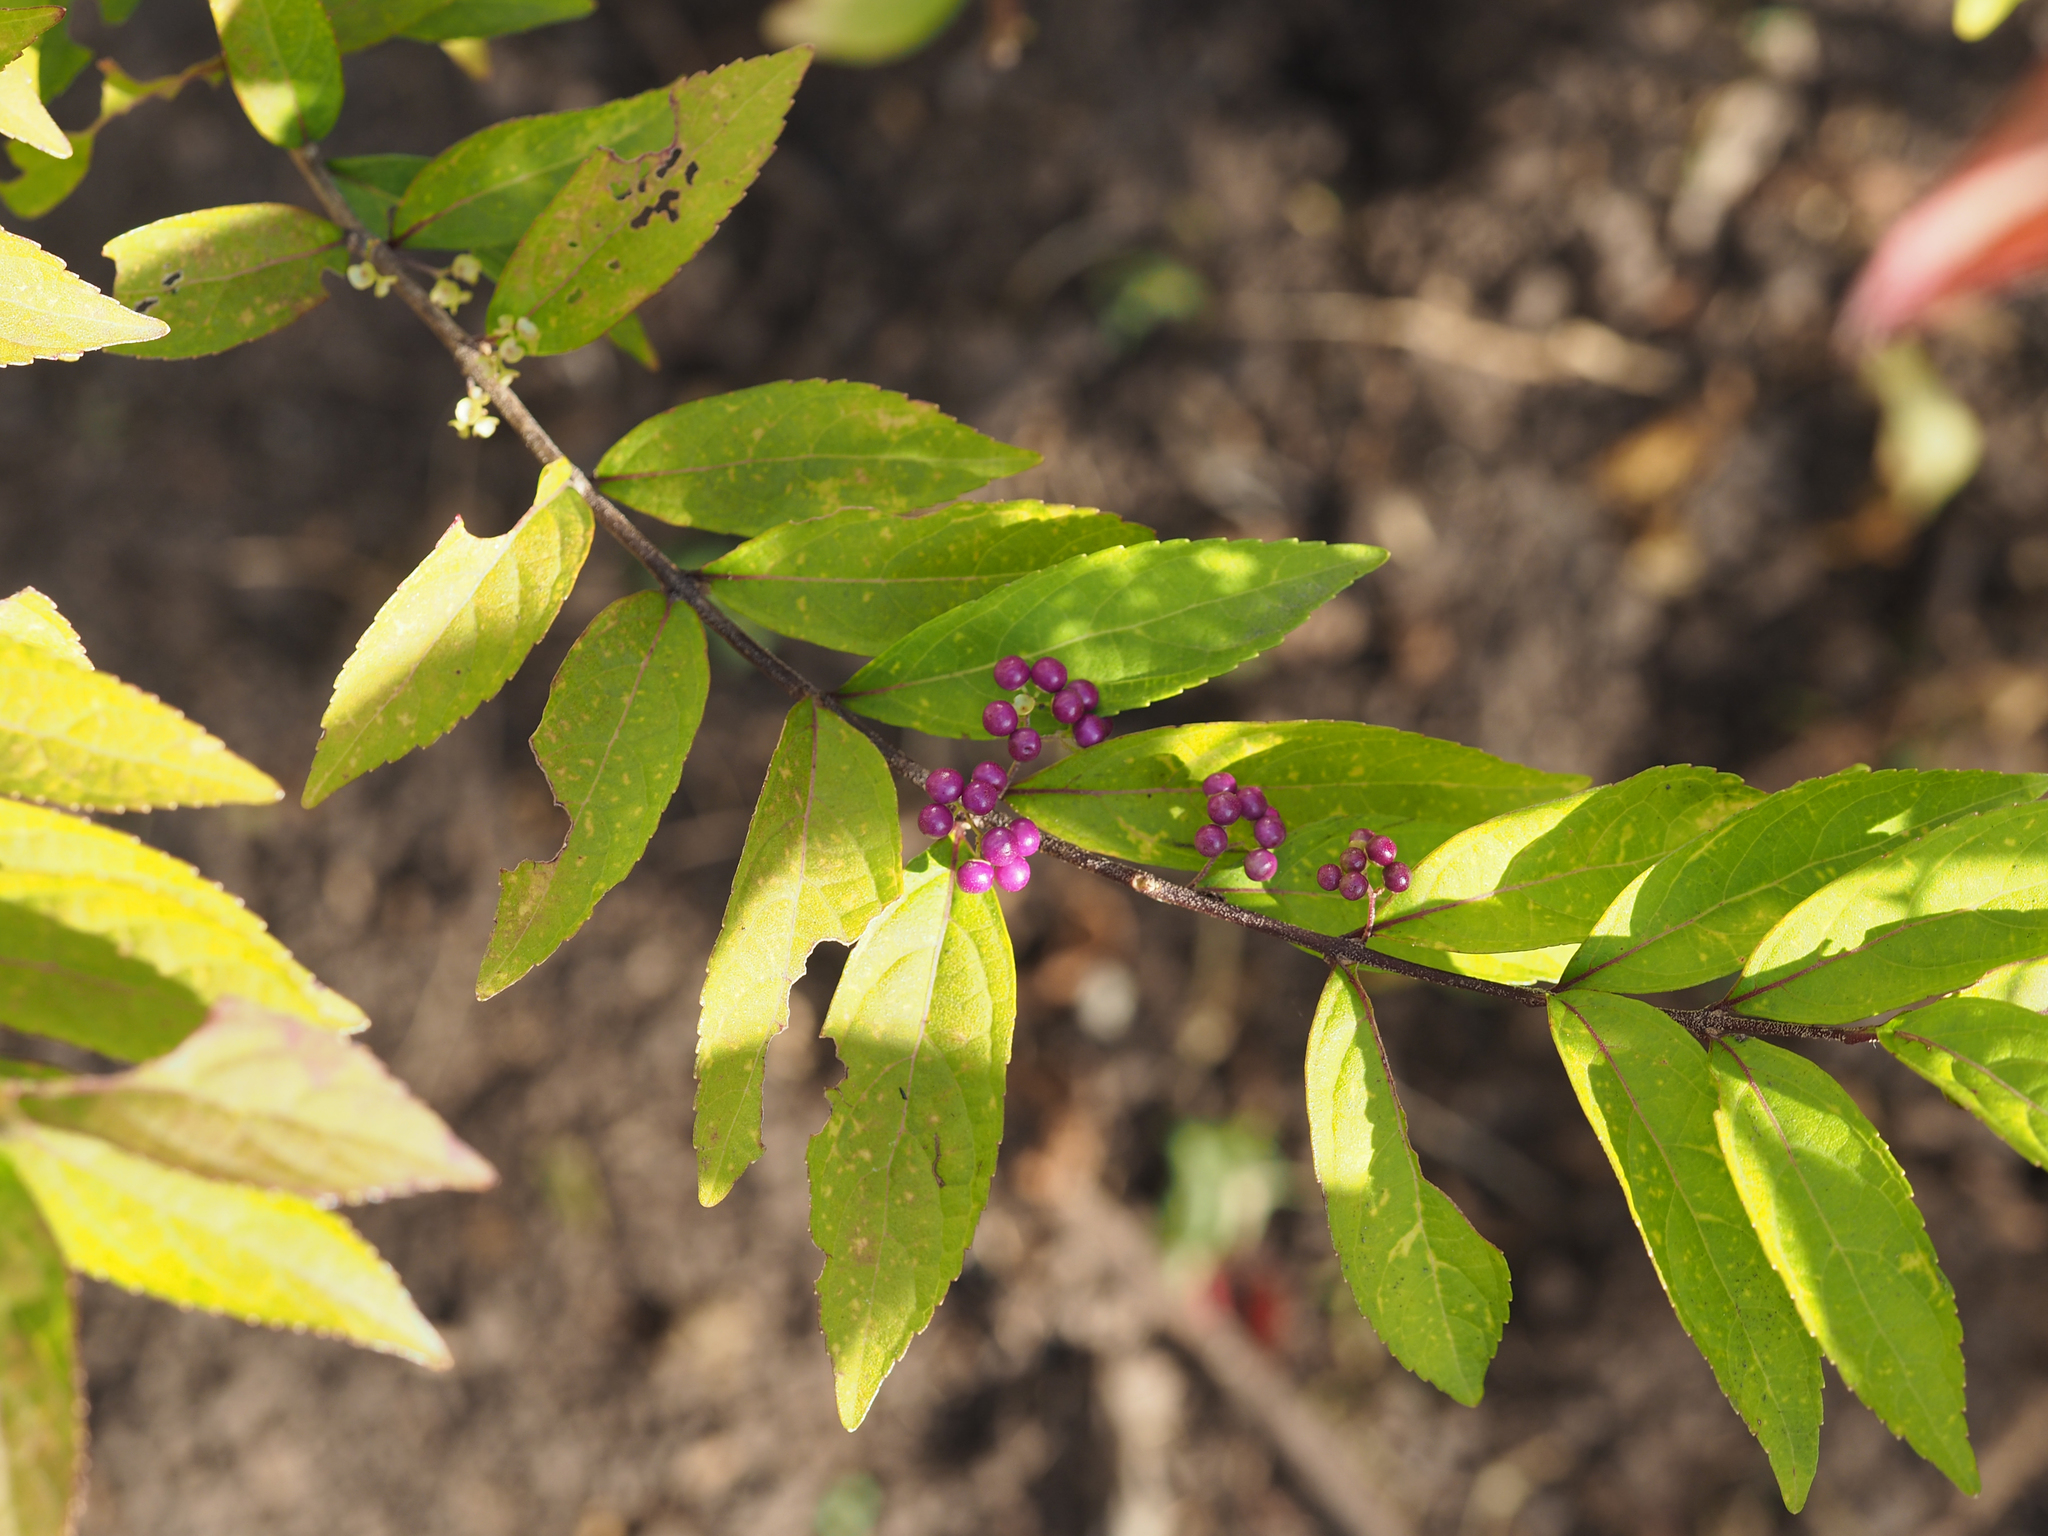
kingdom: Plantae
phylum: Tracheophyta
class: Magnoliopsida
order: Lamiales
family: Lamiaceae
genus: Callicarpa
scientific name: Callicarpa dichotoma
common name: Purple beauty-berry
